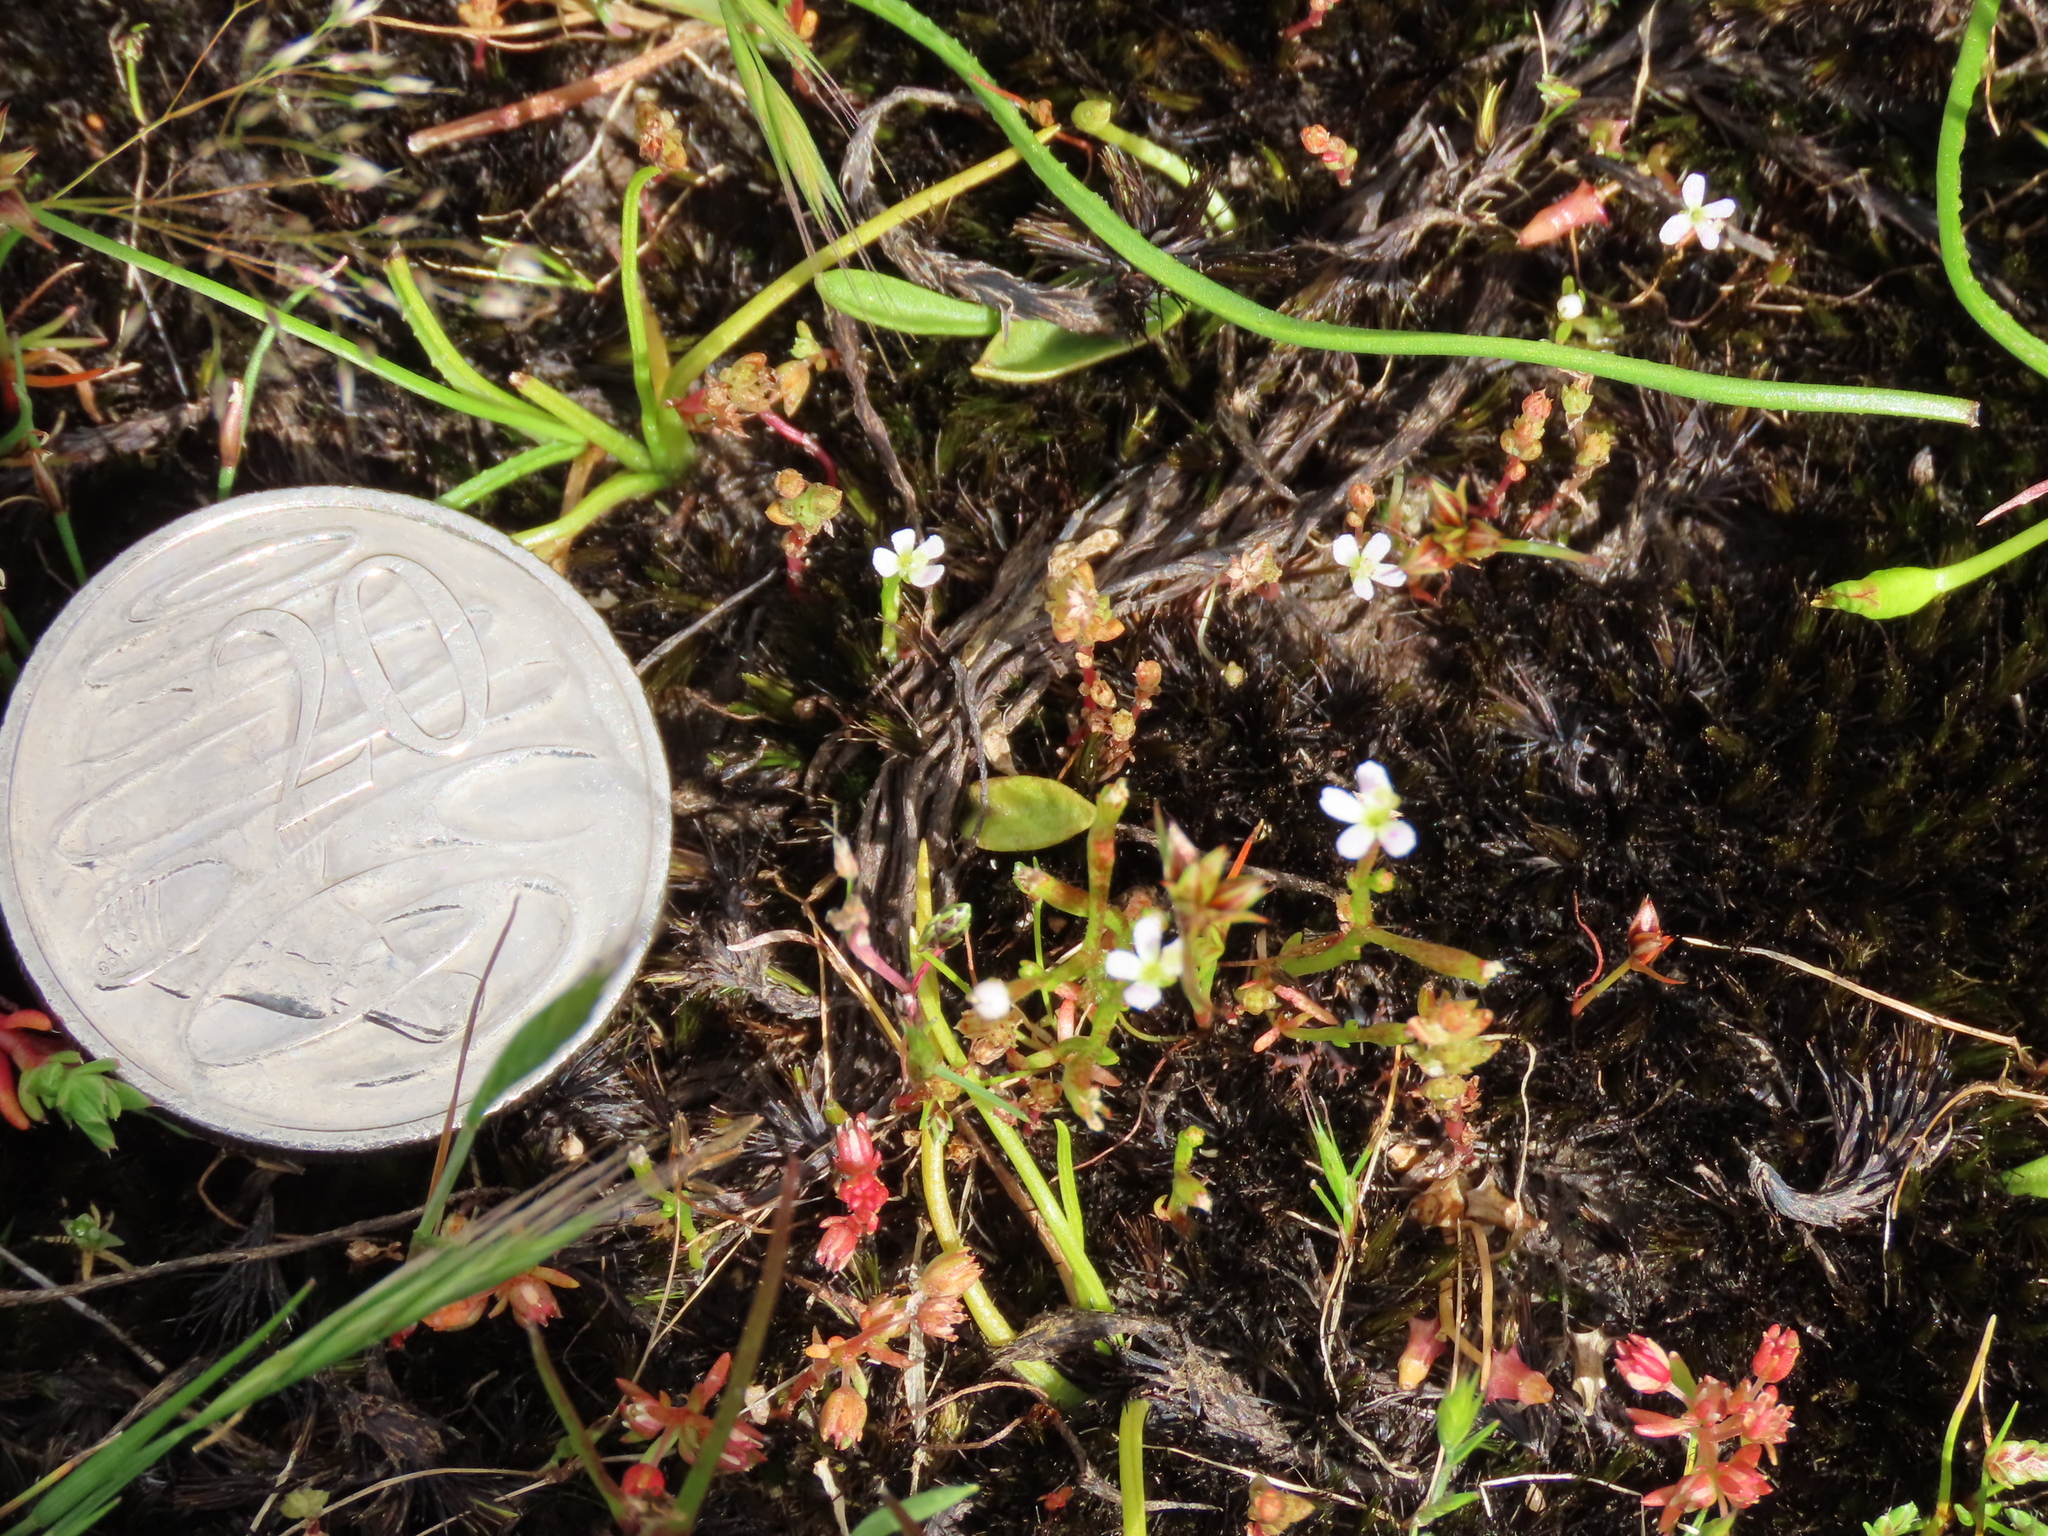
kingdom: Plantae
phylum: Tracheophyta
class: Magnoliopsida
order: Asterales
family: Stylidiaceae
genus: Levenhookia
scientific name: Levenhookia dubia
